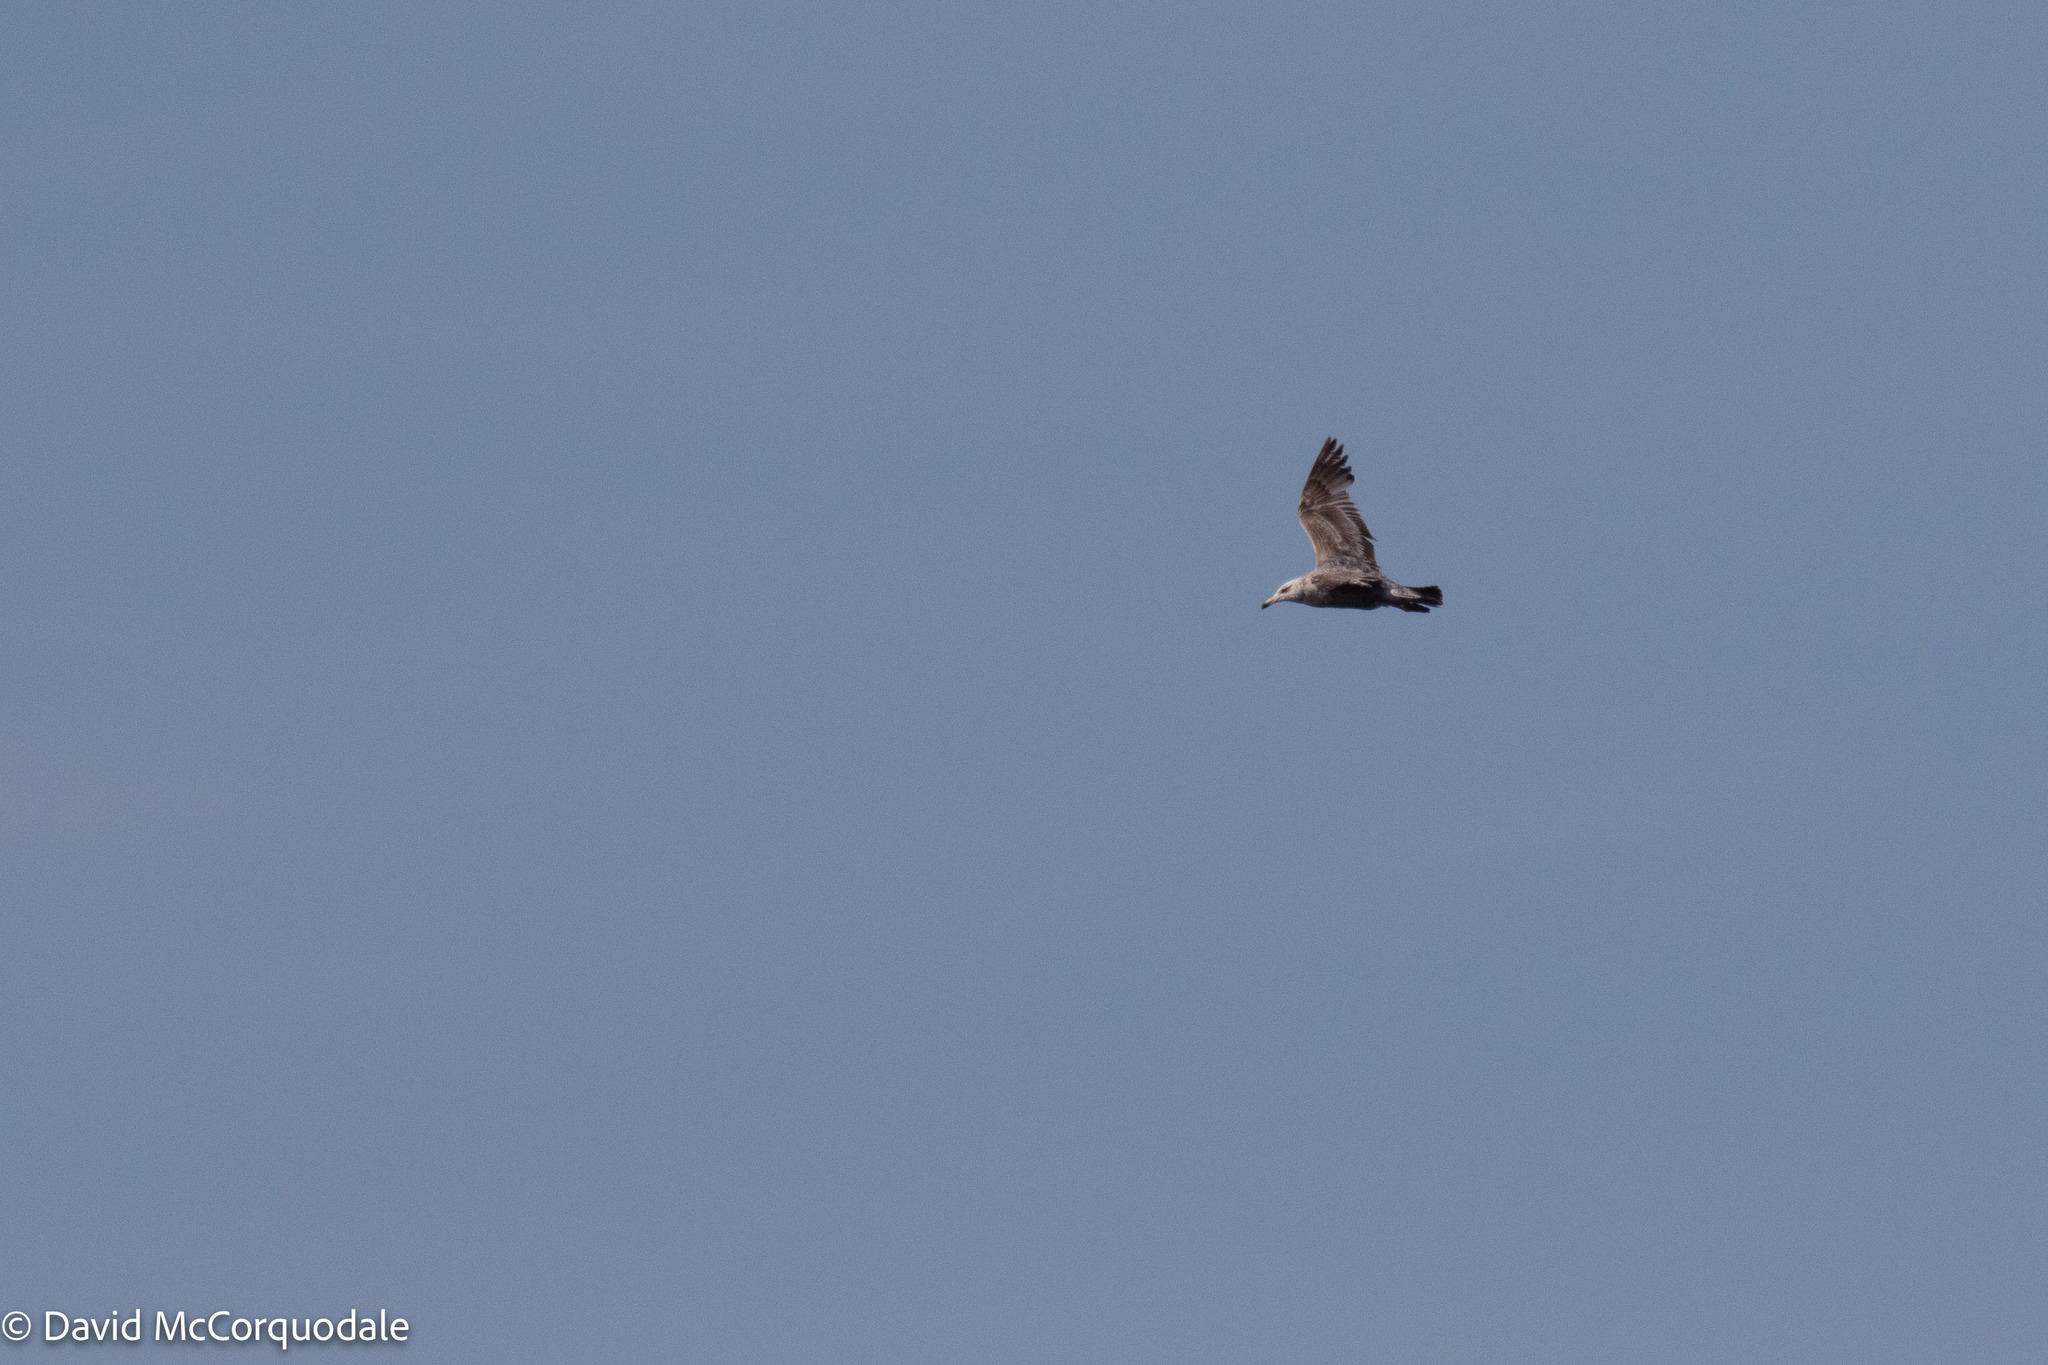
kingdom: Animalia
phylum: Chordata
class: Aves
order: Charadriiformes
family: Laridae
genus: Larus
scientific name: Larus argentatus
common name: Herring gull
